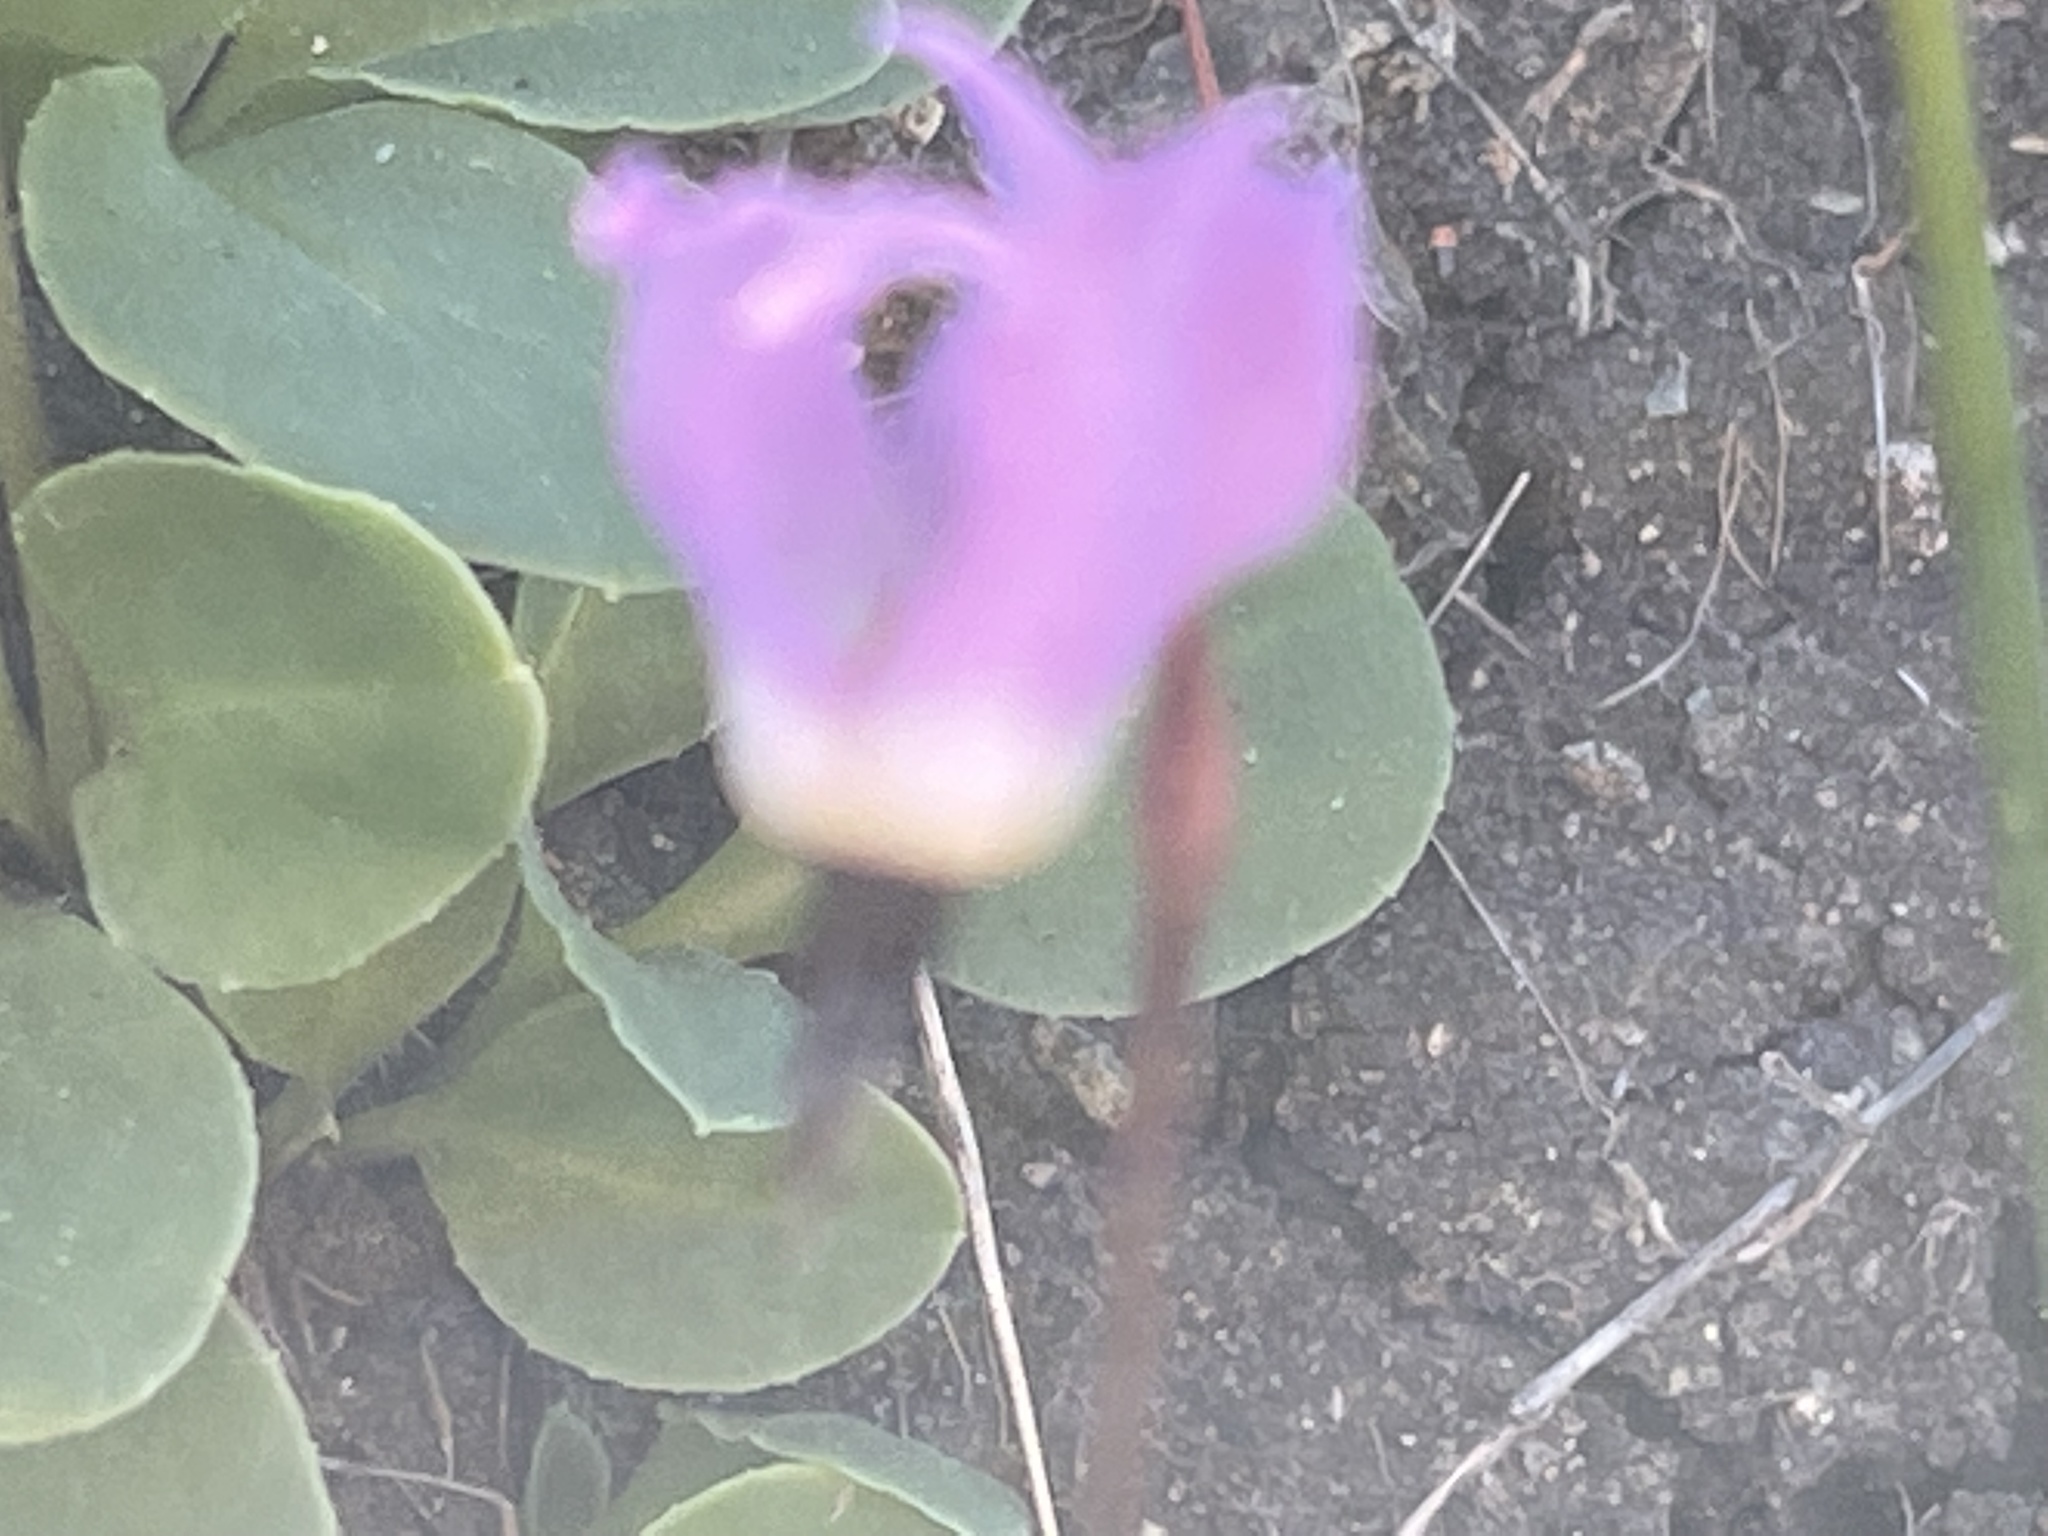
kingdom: Plantae
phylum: Tracheophyta
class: Magnoliopsida
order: Ericales
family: Primulaceae
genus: Dodecatheon
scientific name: Dodecatheon hendersonii
